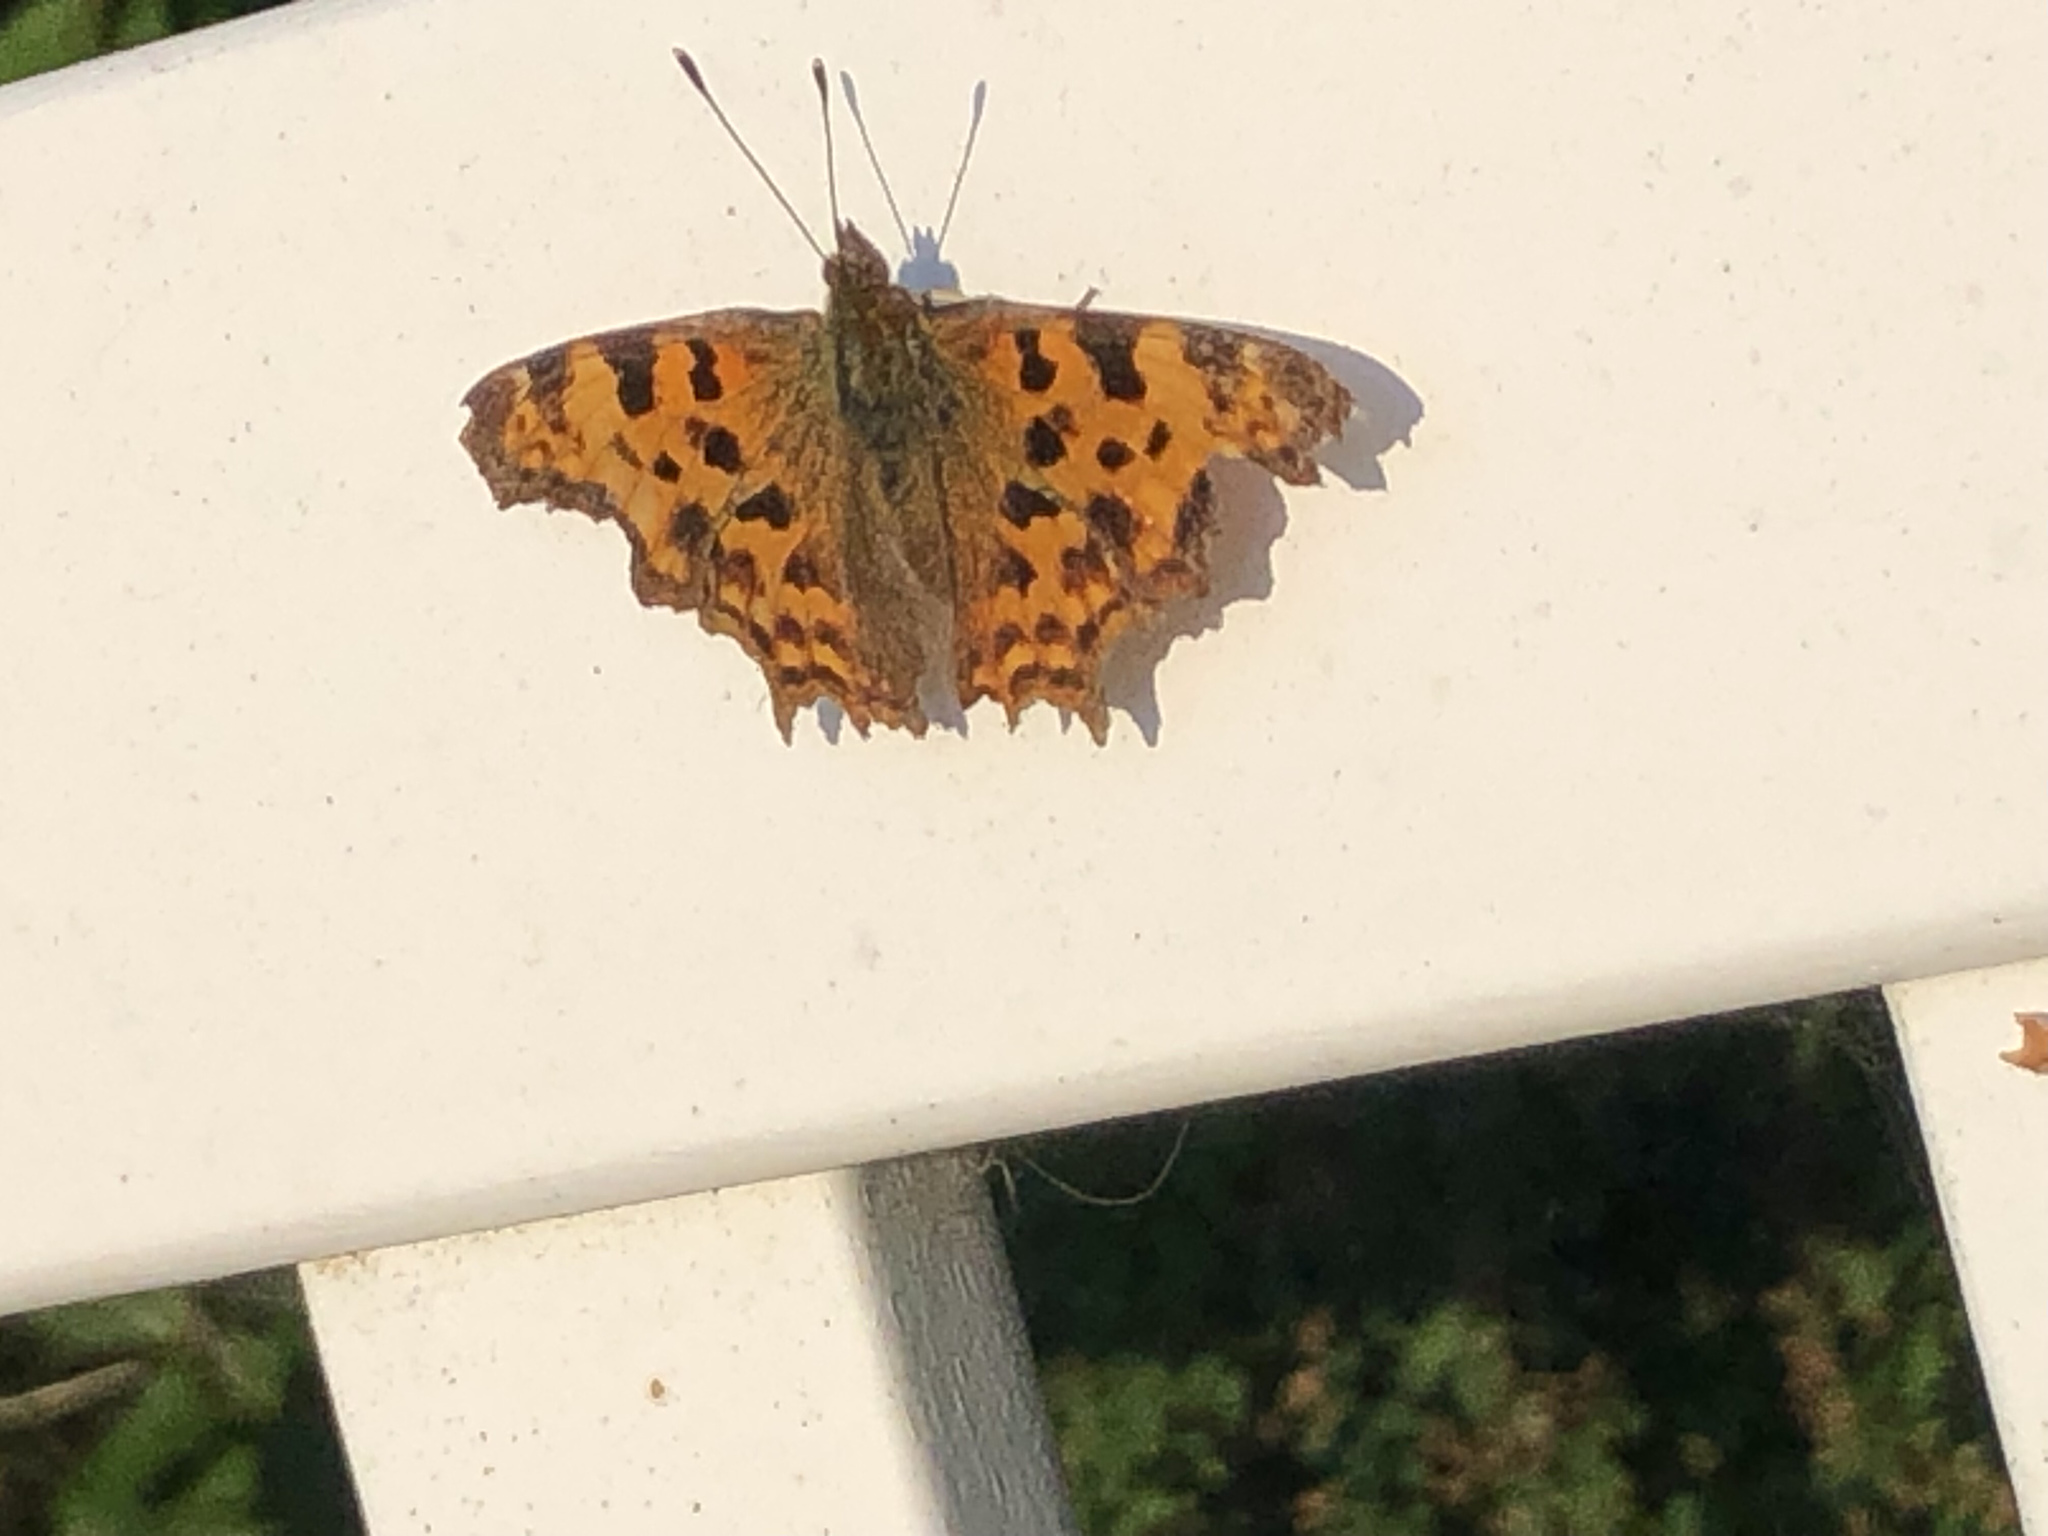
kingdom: Animalia
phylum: Arthropoda
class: Insecta
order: Lepidoptera
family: Nymphalidae
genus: Polygonia
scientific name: Polygonia c-album
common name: Comma
